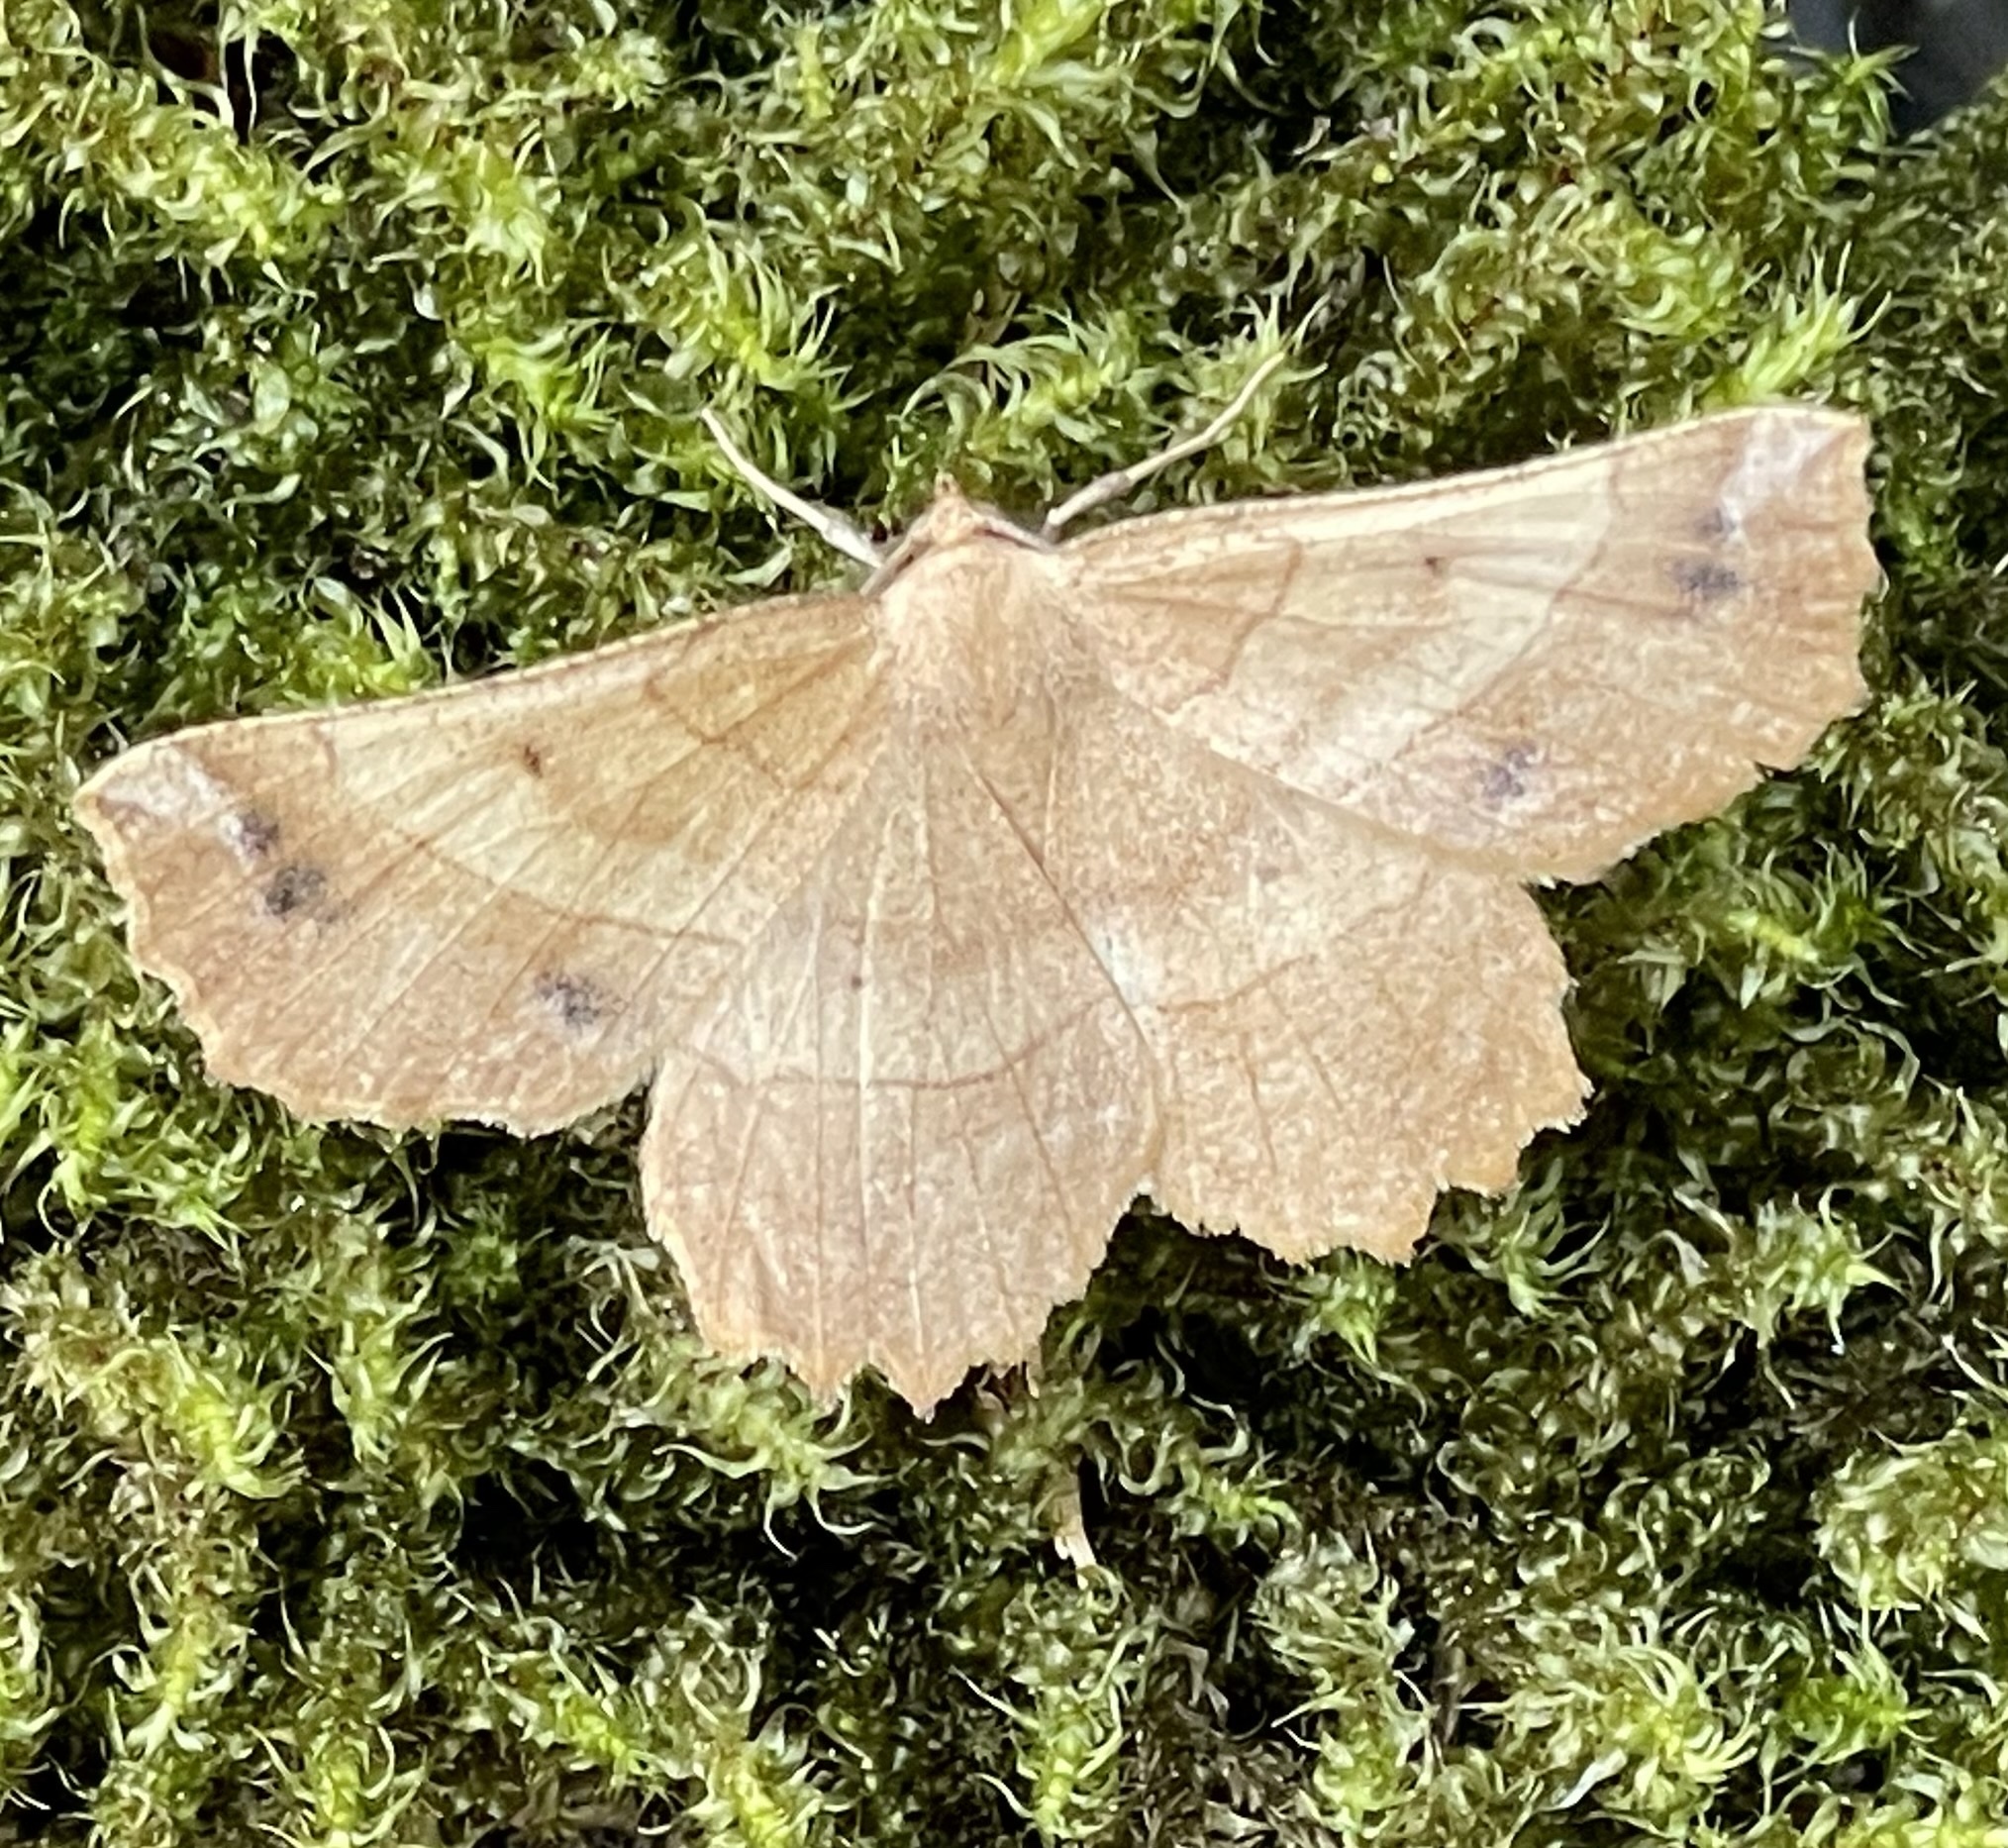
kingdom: Animalia
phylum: Arthropoda
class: Insecta
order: Lepidoptera
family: Geometridae
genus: Euchlaena
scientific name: Euchlaena johnsonaria
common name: Johnson's euchlaena
